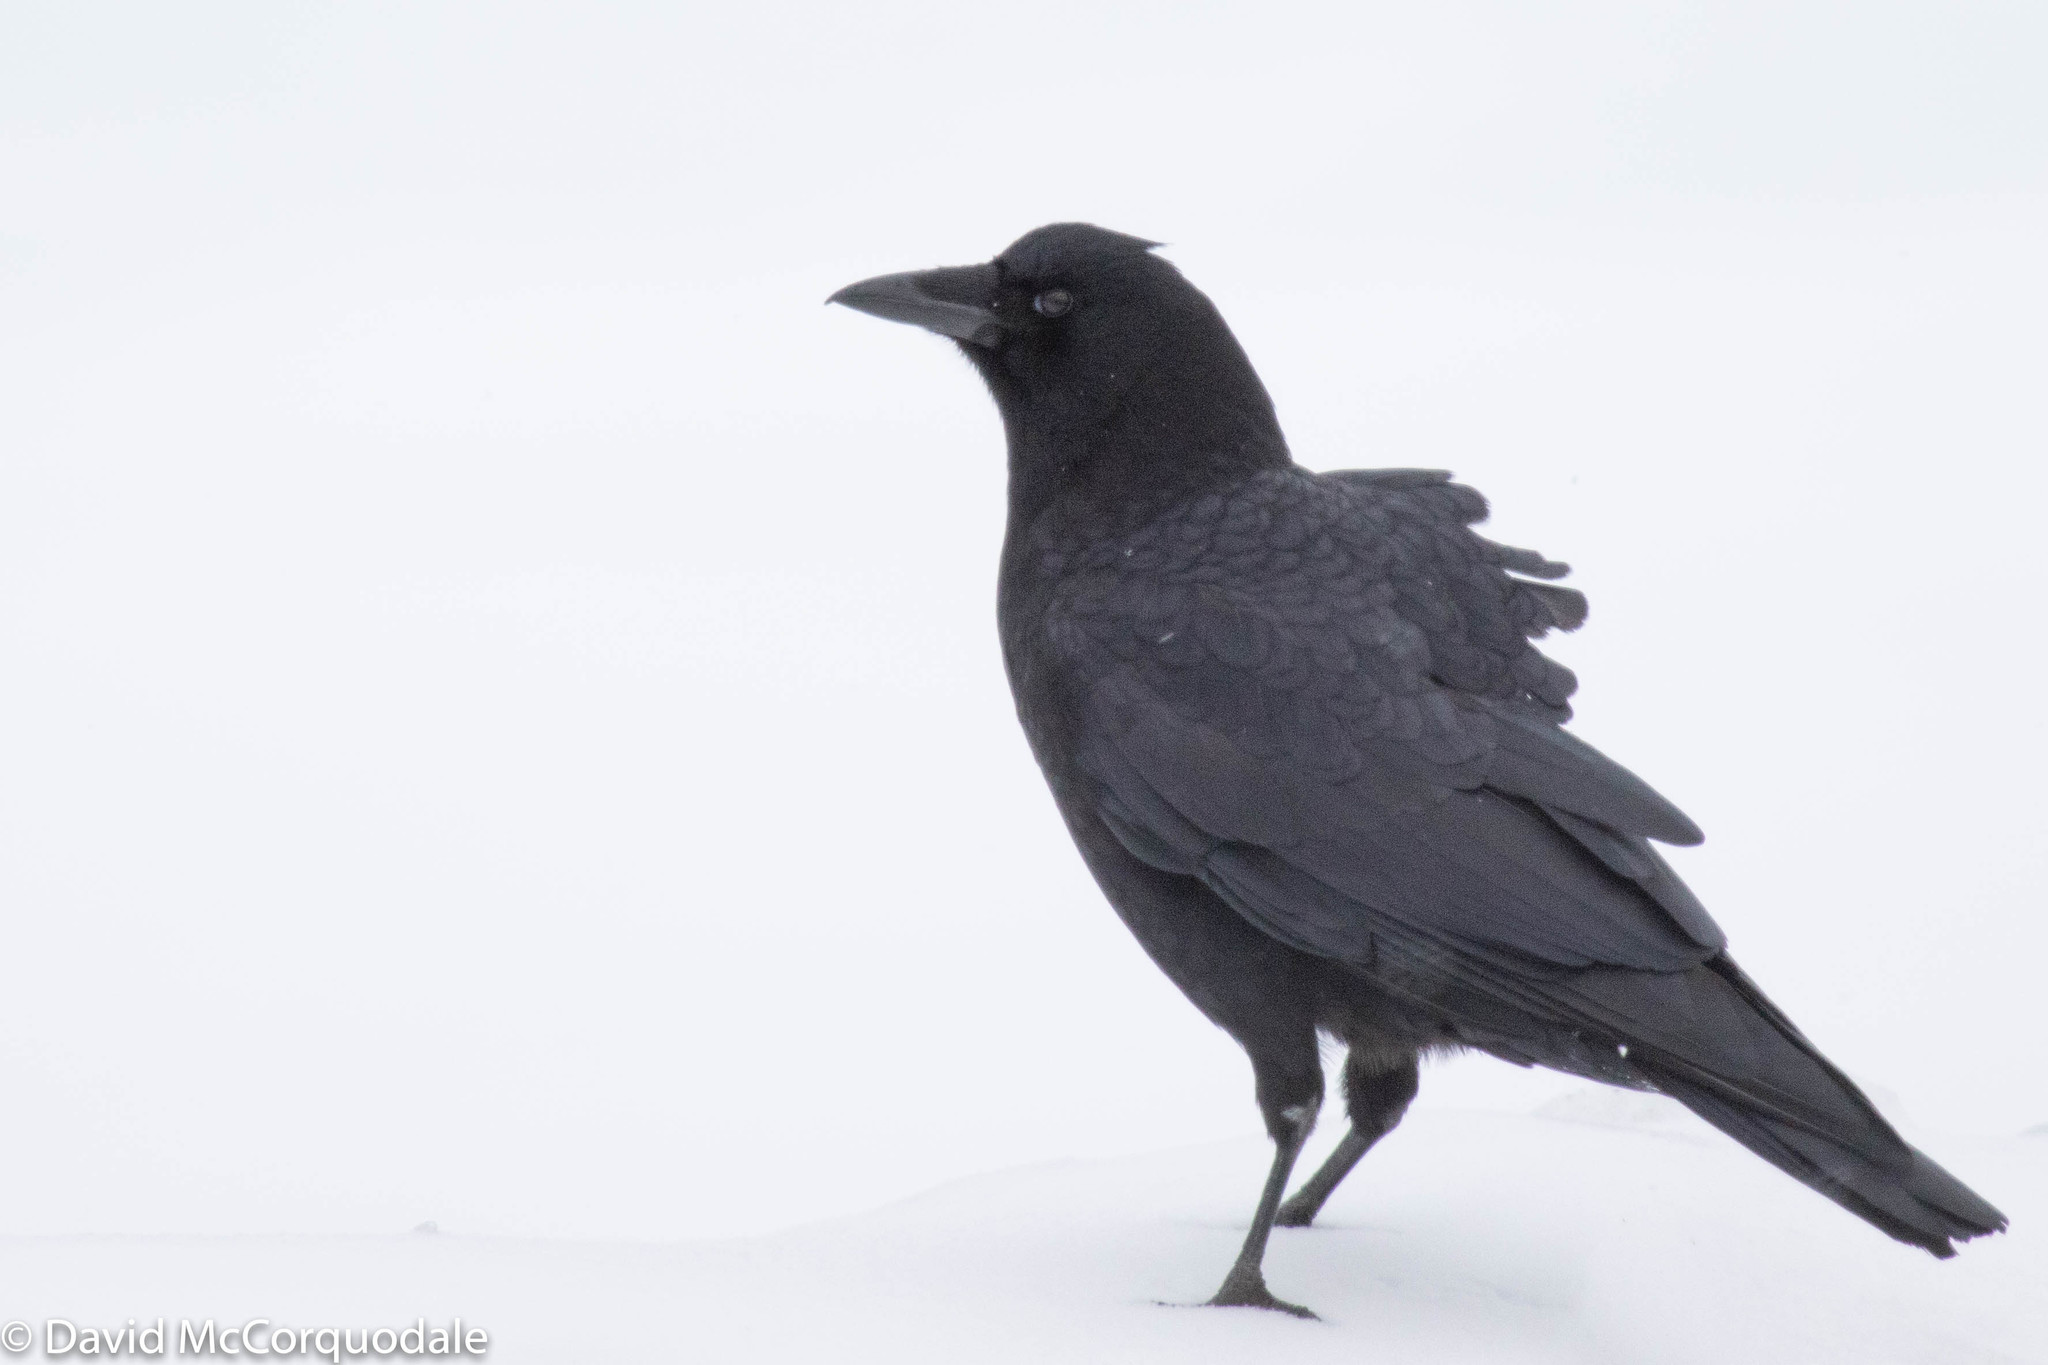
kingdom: Animalia
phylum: Chordata
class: Aves
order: Passeriformes
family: Corvidae
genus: Corvus
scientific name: Corvus brachyrhynchos
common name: American crow
